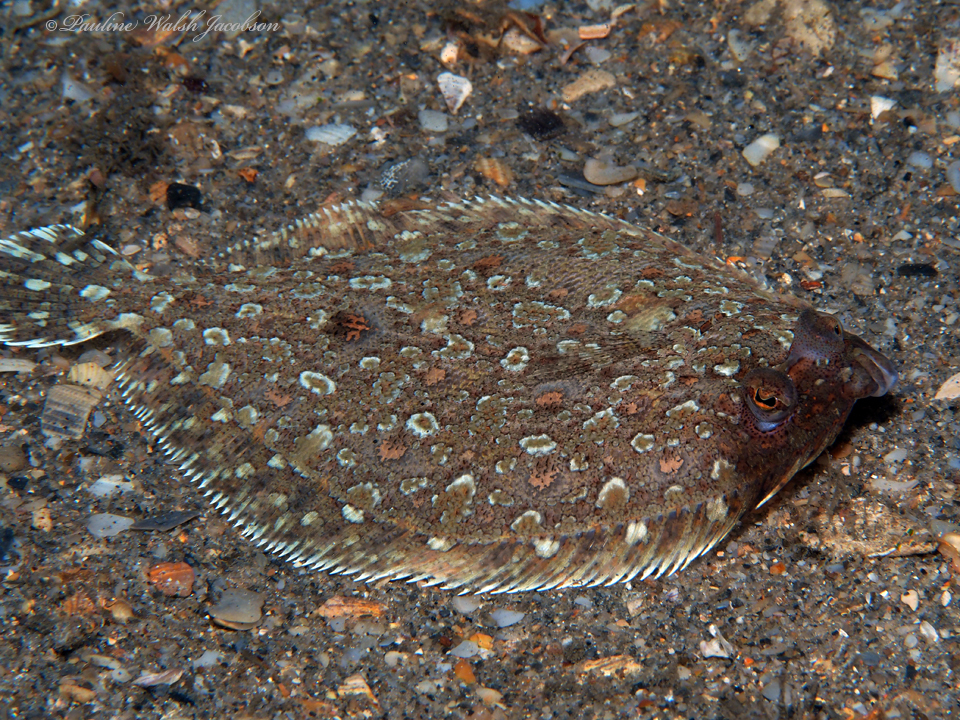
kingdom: Animalia
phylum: Chordata
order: Pleuronectiformes
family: Bothidae
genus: Bothus
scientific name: Bothus maculiferus
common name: Mottled flounder
